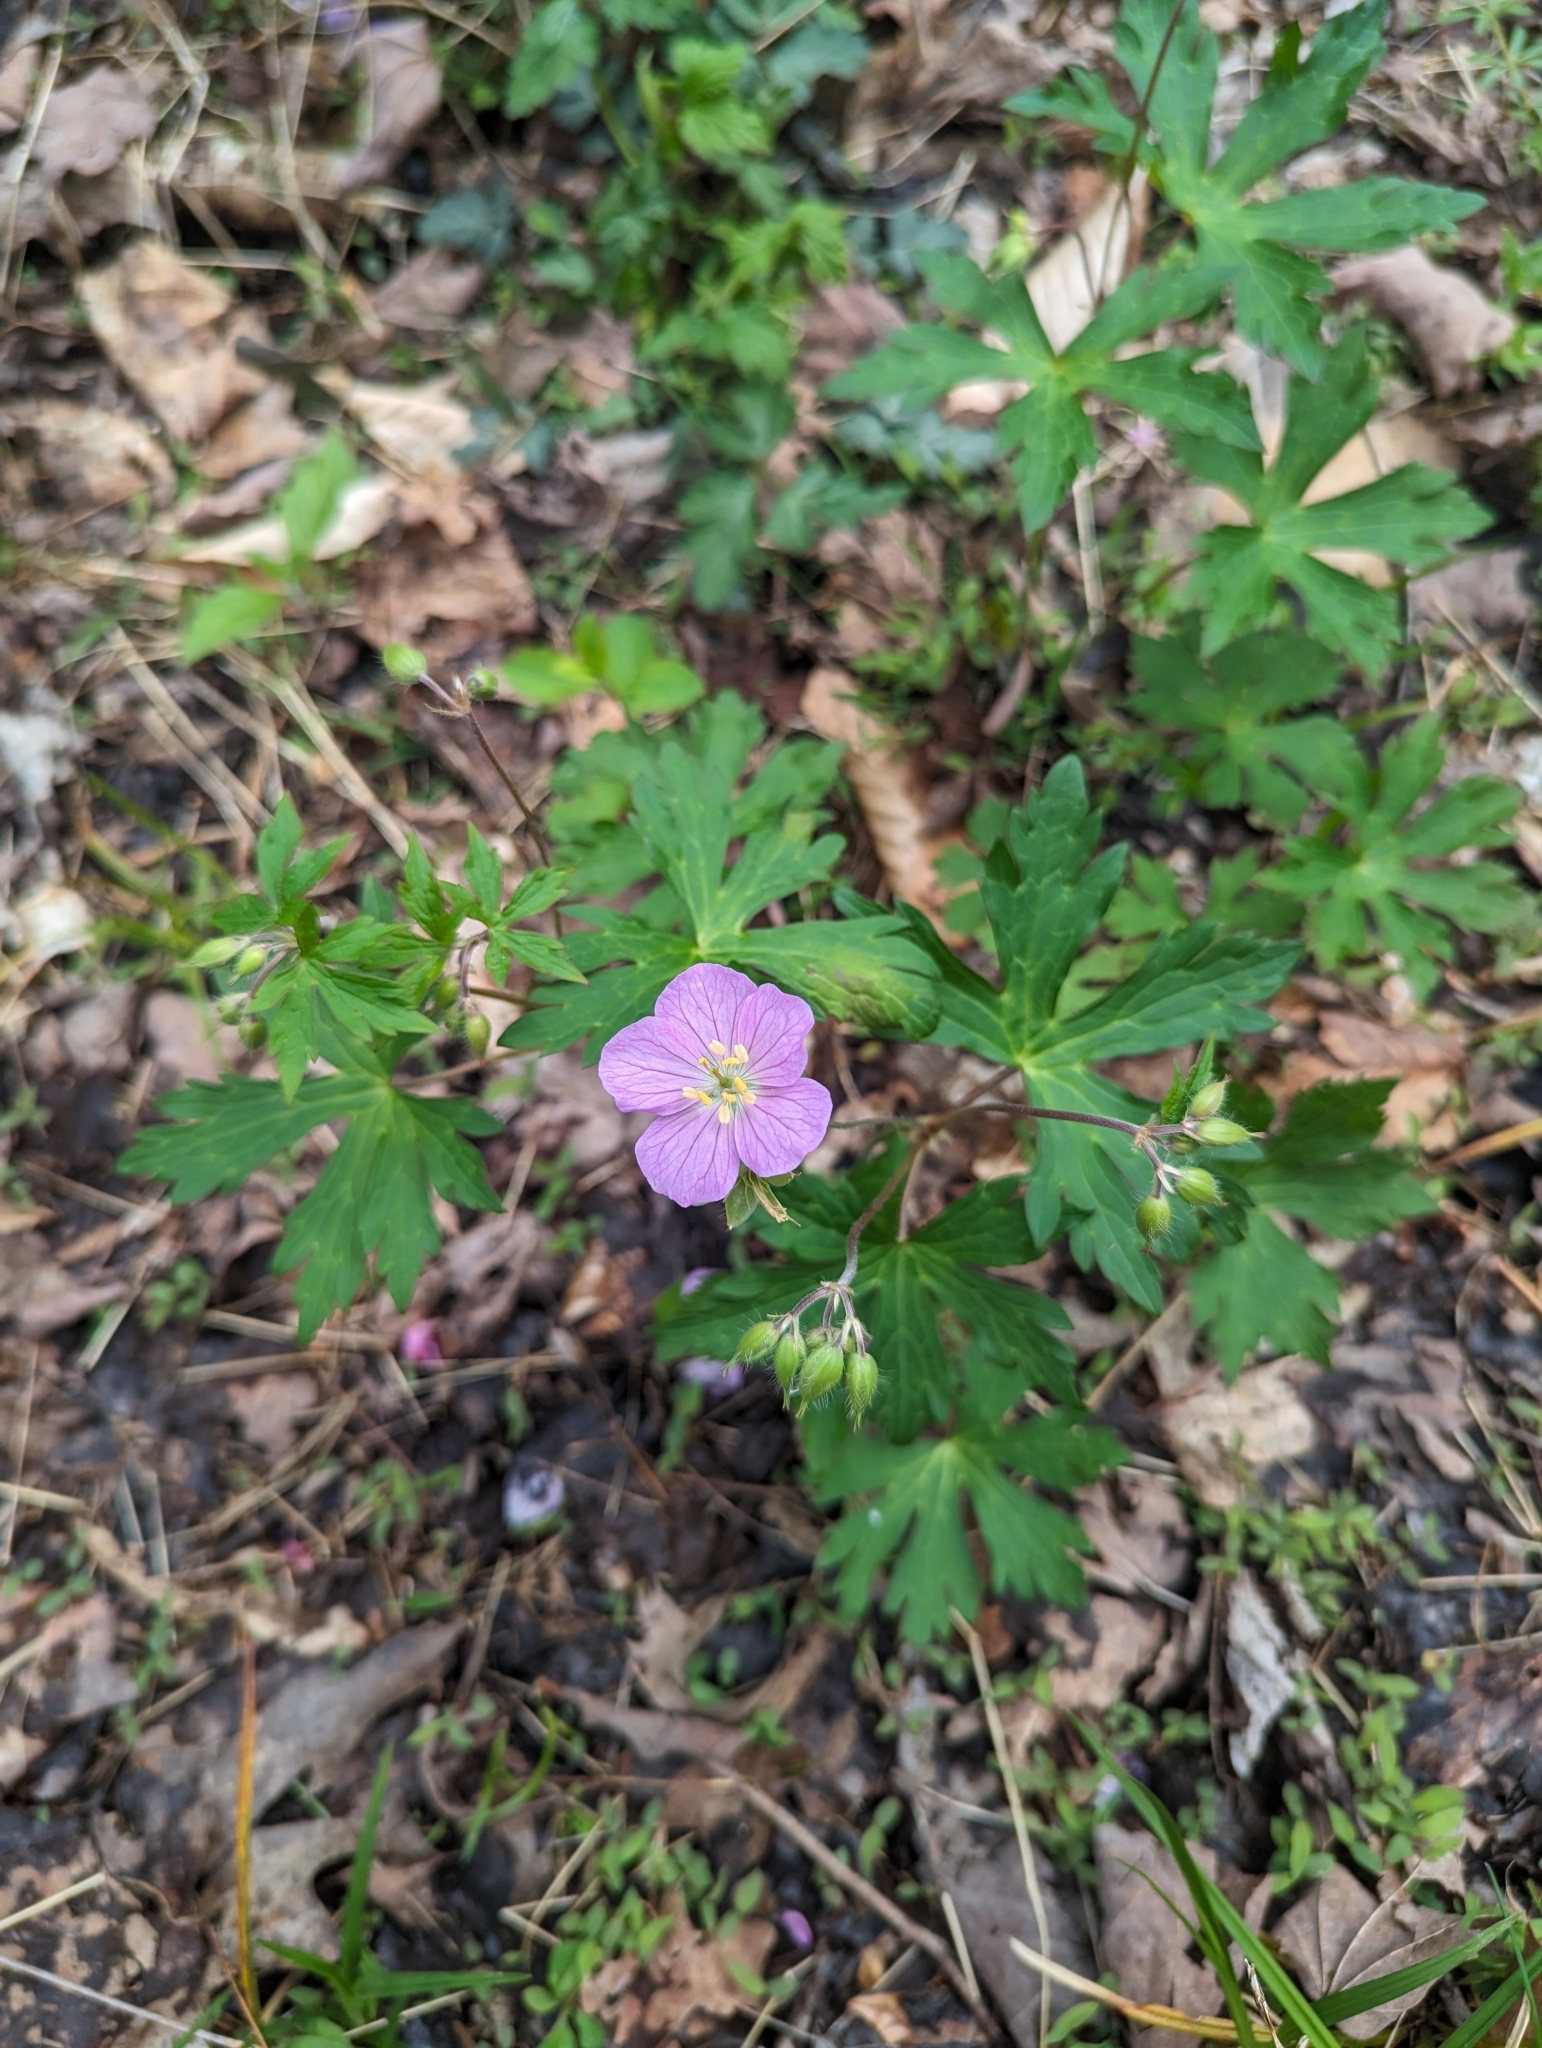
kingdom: Plantae
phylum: Tracheophyta
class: Magnoliopsida
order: Geraniales
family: Geraniaceae
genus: Geranium
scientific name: Geranium maculatum
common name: Spotted geranium
